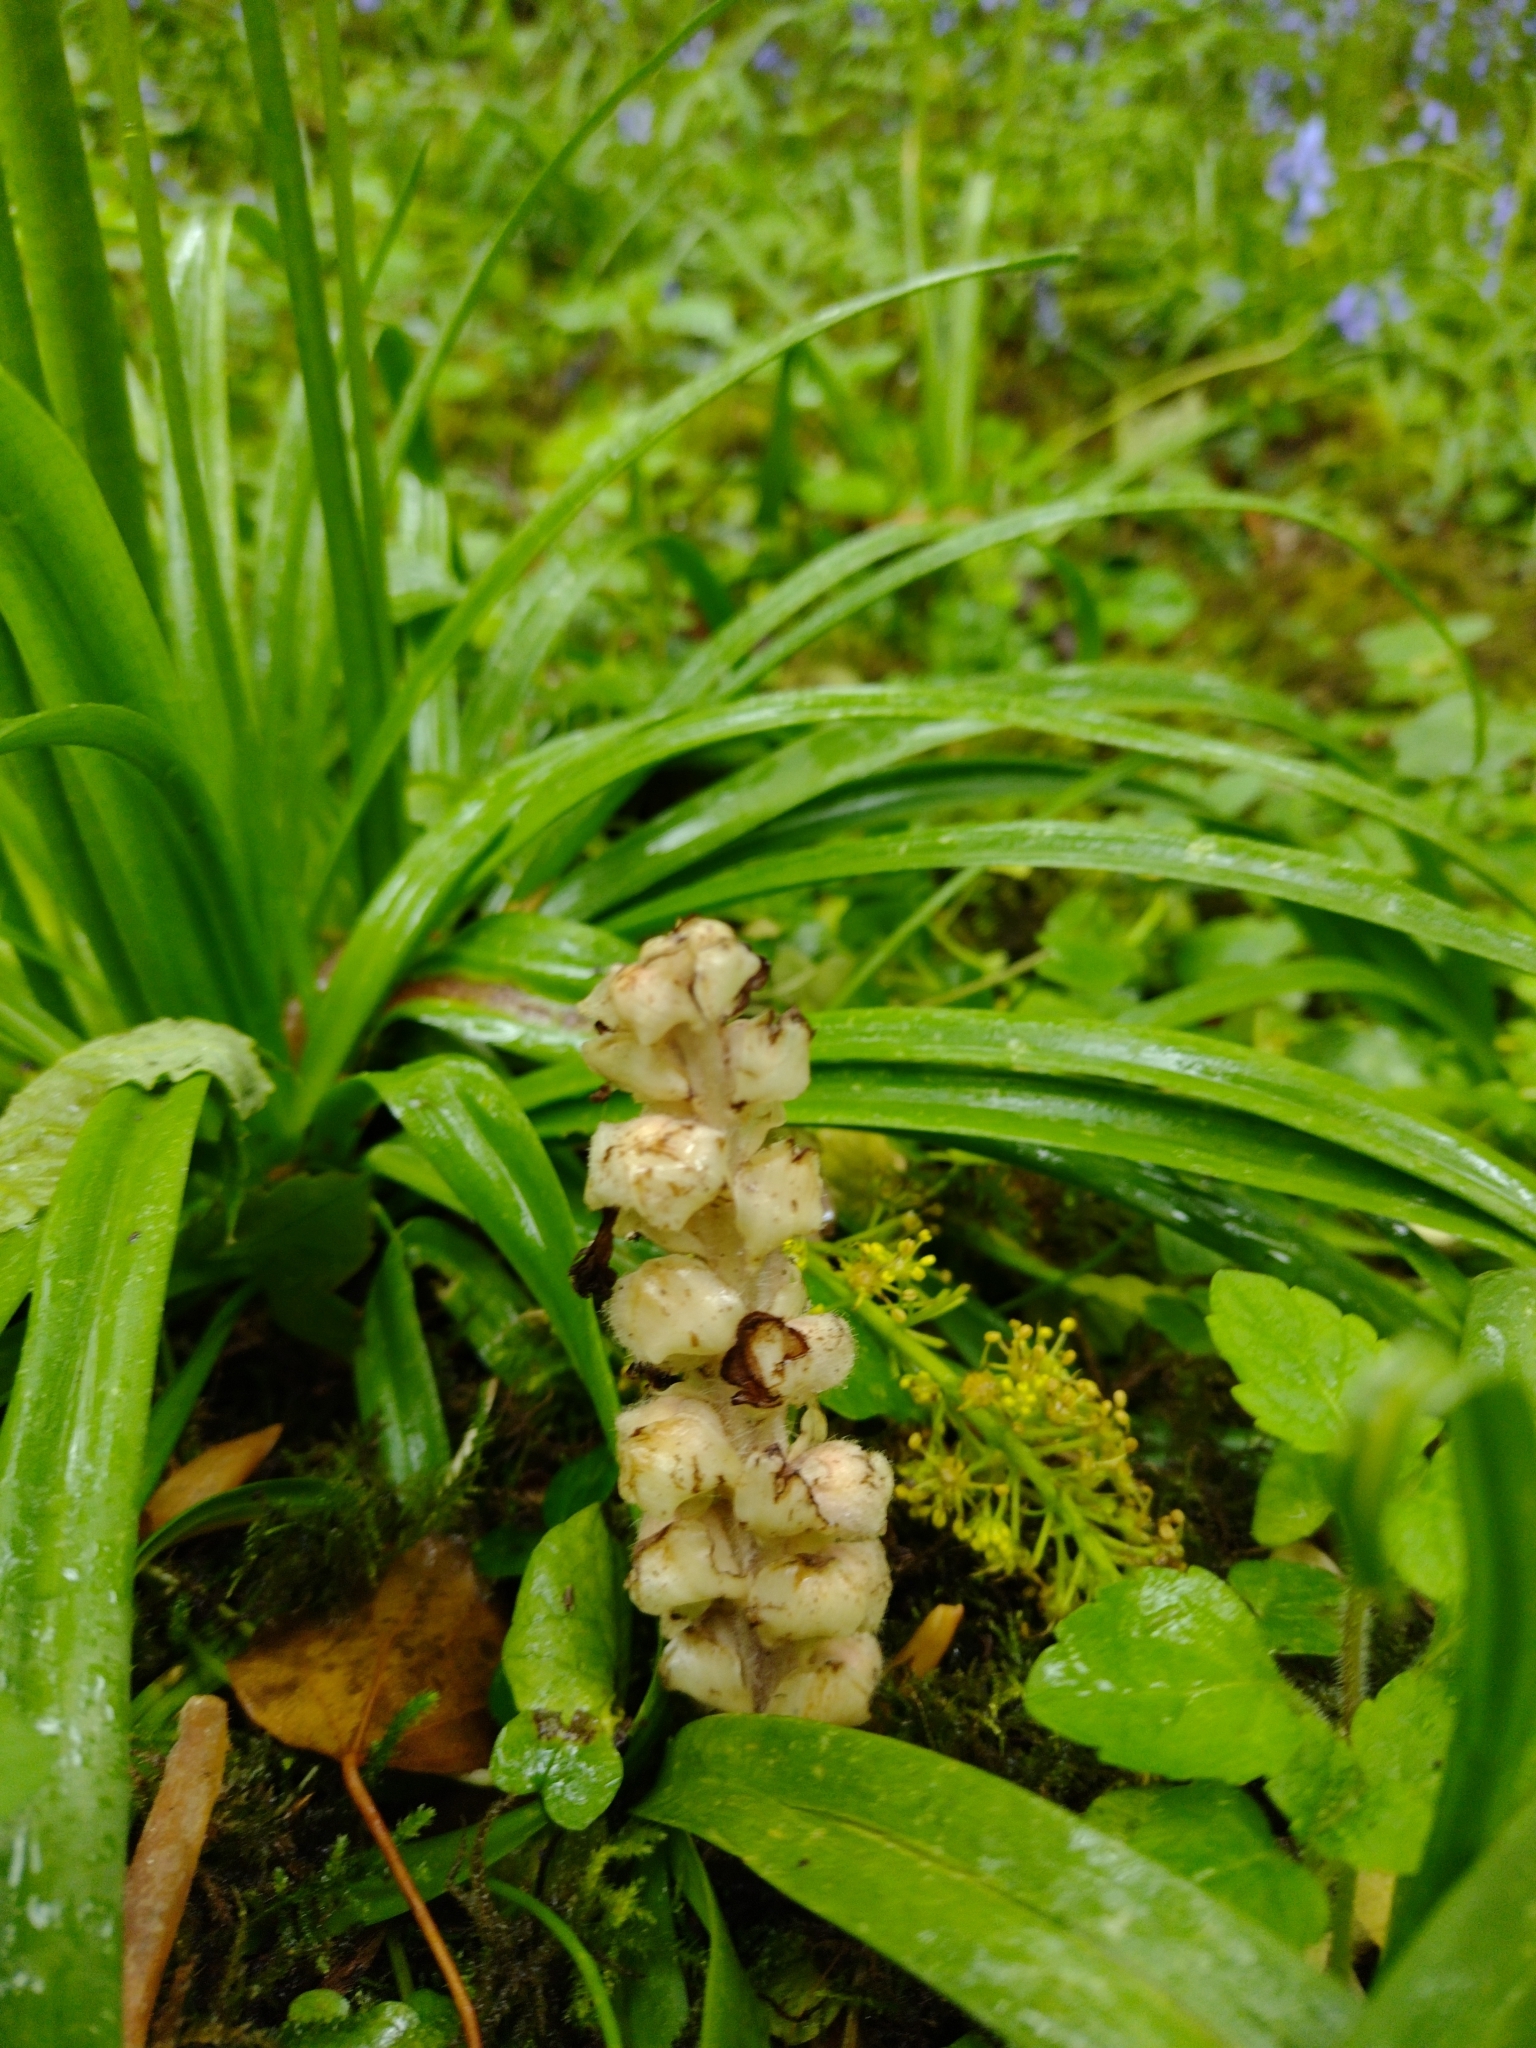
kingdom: Plantae
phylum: Tracheophyta
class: Magnoliopsida
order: Lamiales
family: Orobanchaceae
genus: Lathraea
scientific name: Lathraea squamaria
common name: Toothwort
